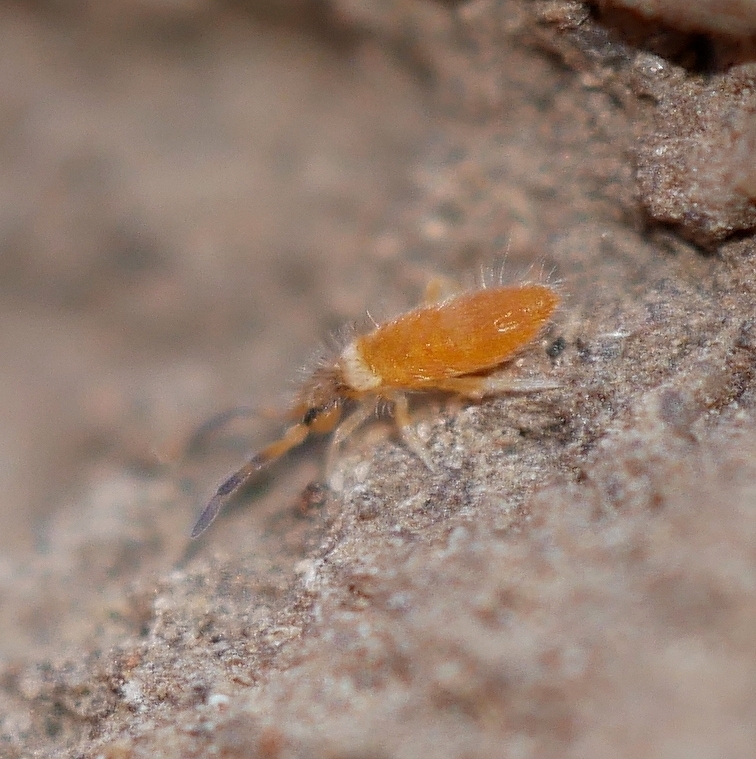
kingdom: Animalia
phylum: Arthropoda
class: Collembola
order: Entomobryomorpha
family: Entomobryidae
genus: Entomobrya
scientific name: Entomobrya atrocincta
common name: Springtail
